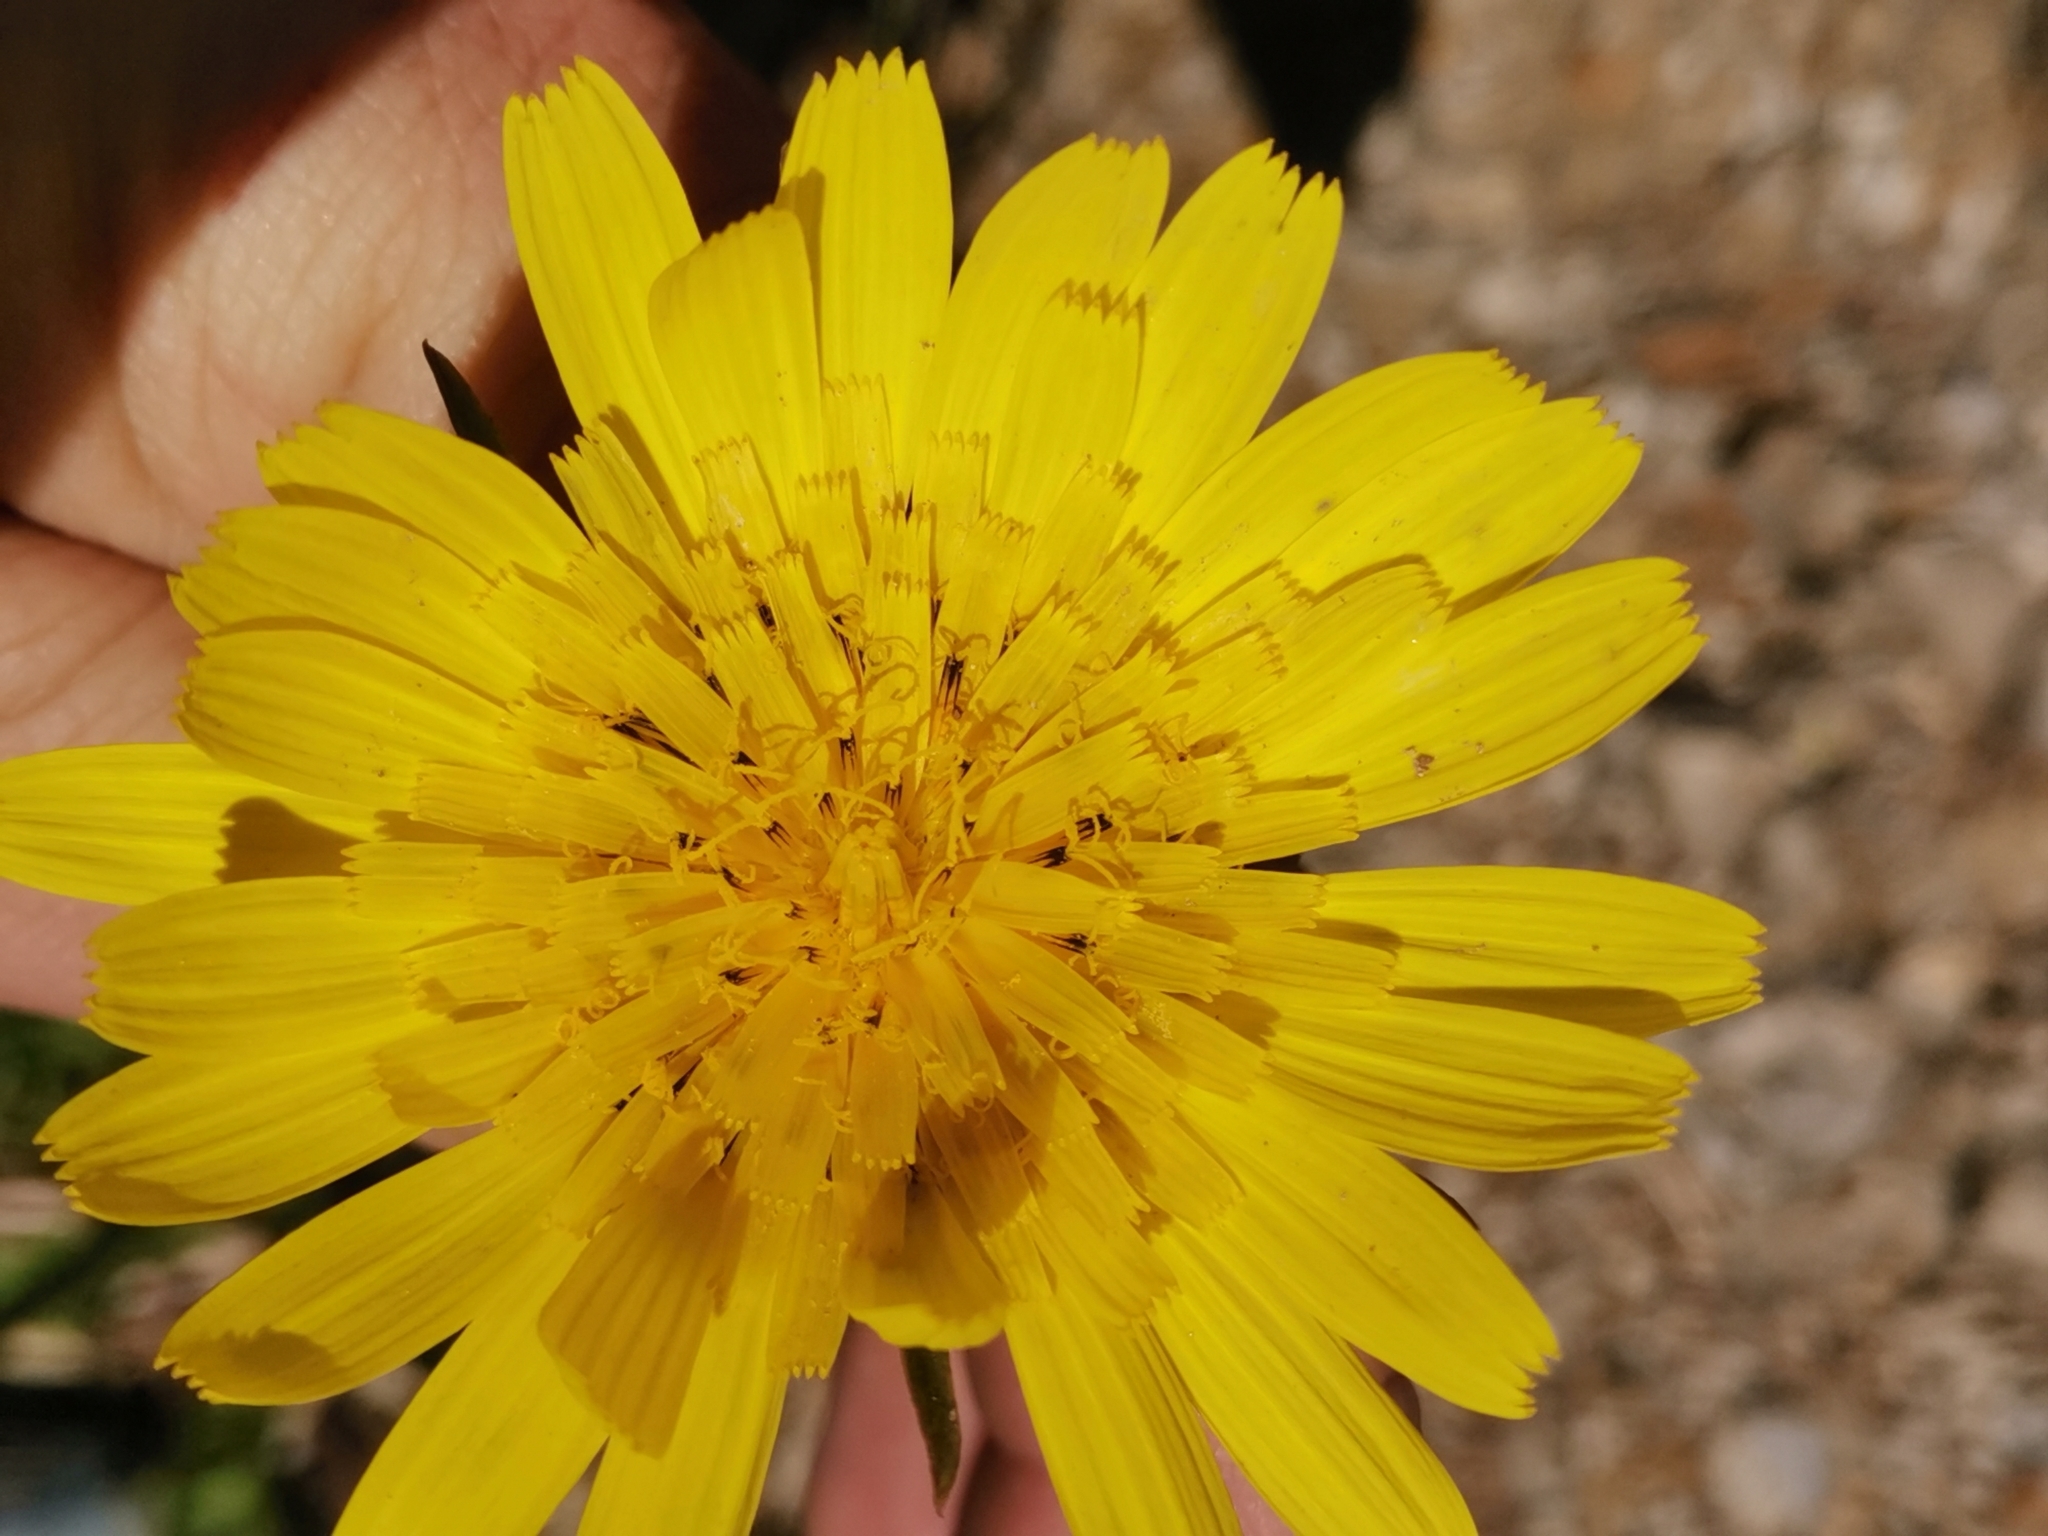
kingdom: Plantae
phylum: Tracheophyta
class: Magnoliopsida
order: Asterales
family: Asteraceae
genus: Tragopogon
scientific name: Tragopogon orientalis
